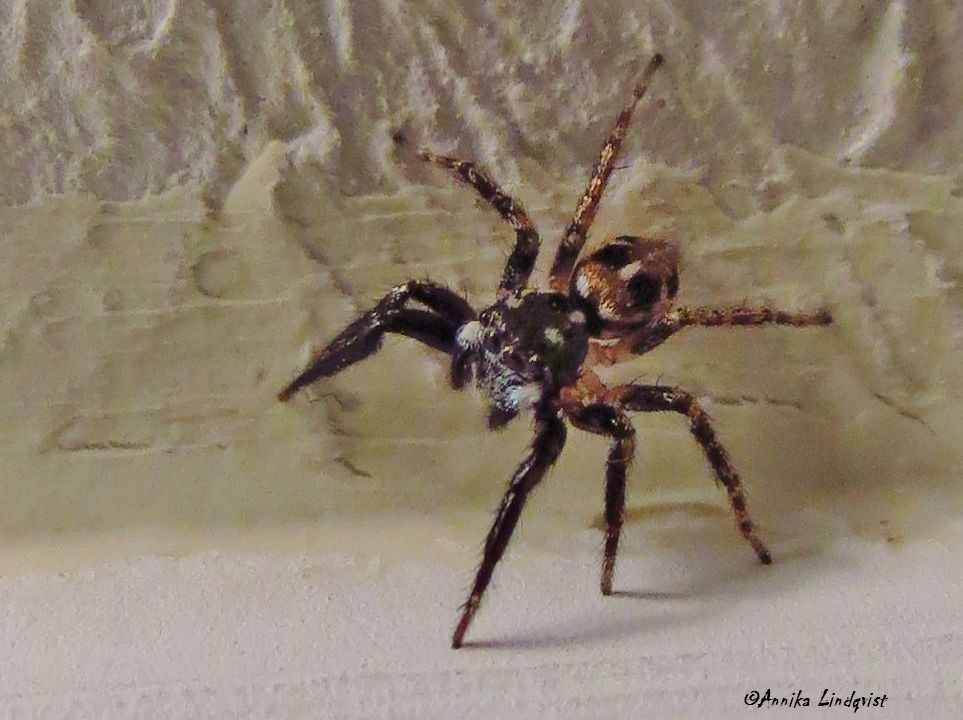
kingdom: Animalia
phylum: Arthropoda
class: Arachnida
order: Araneae
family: Salticidae
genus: Anasaitis
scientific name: Anasaitis canosa
